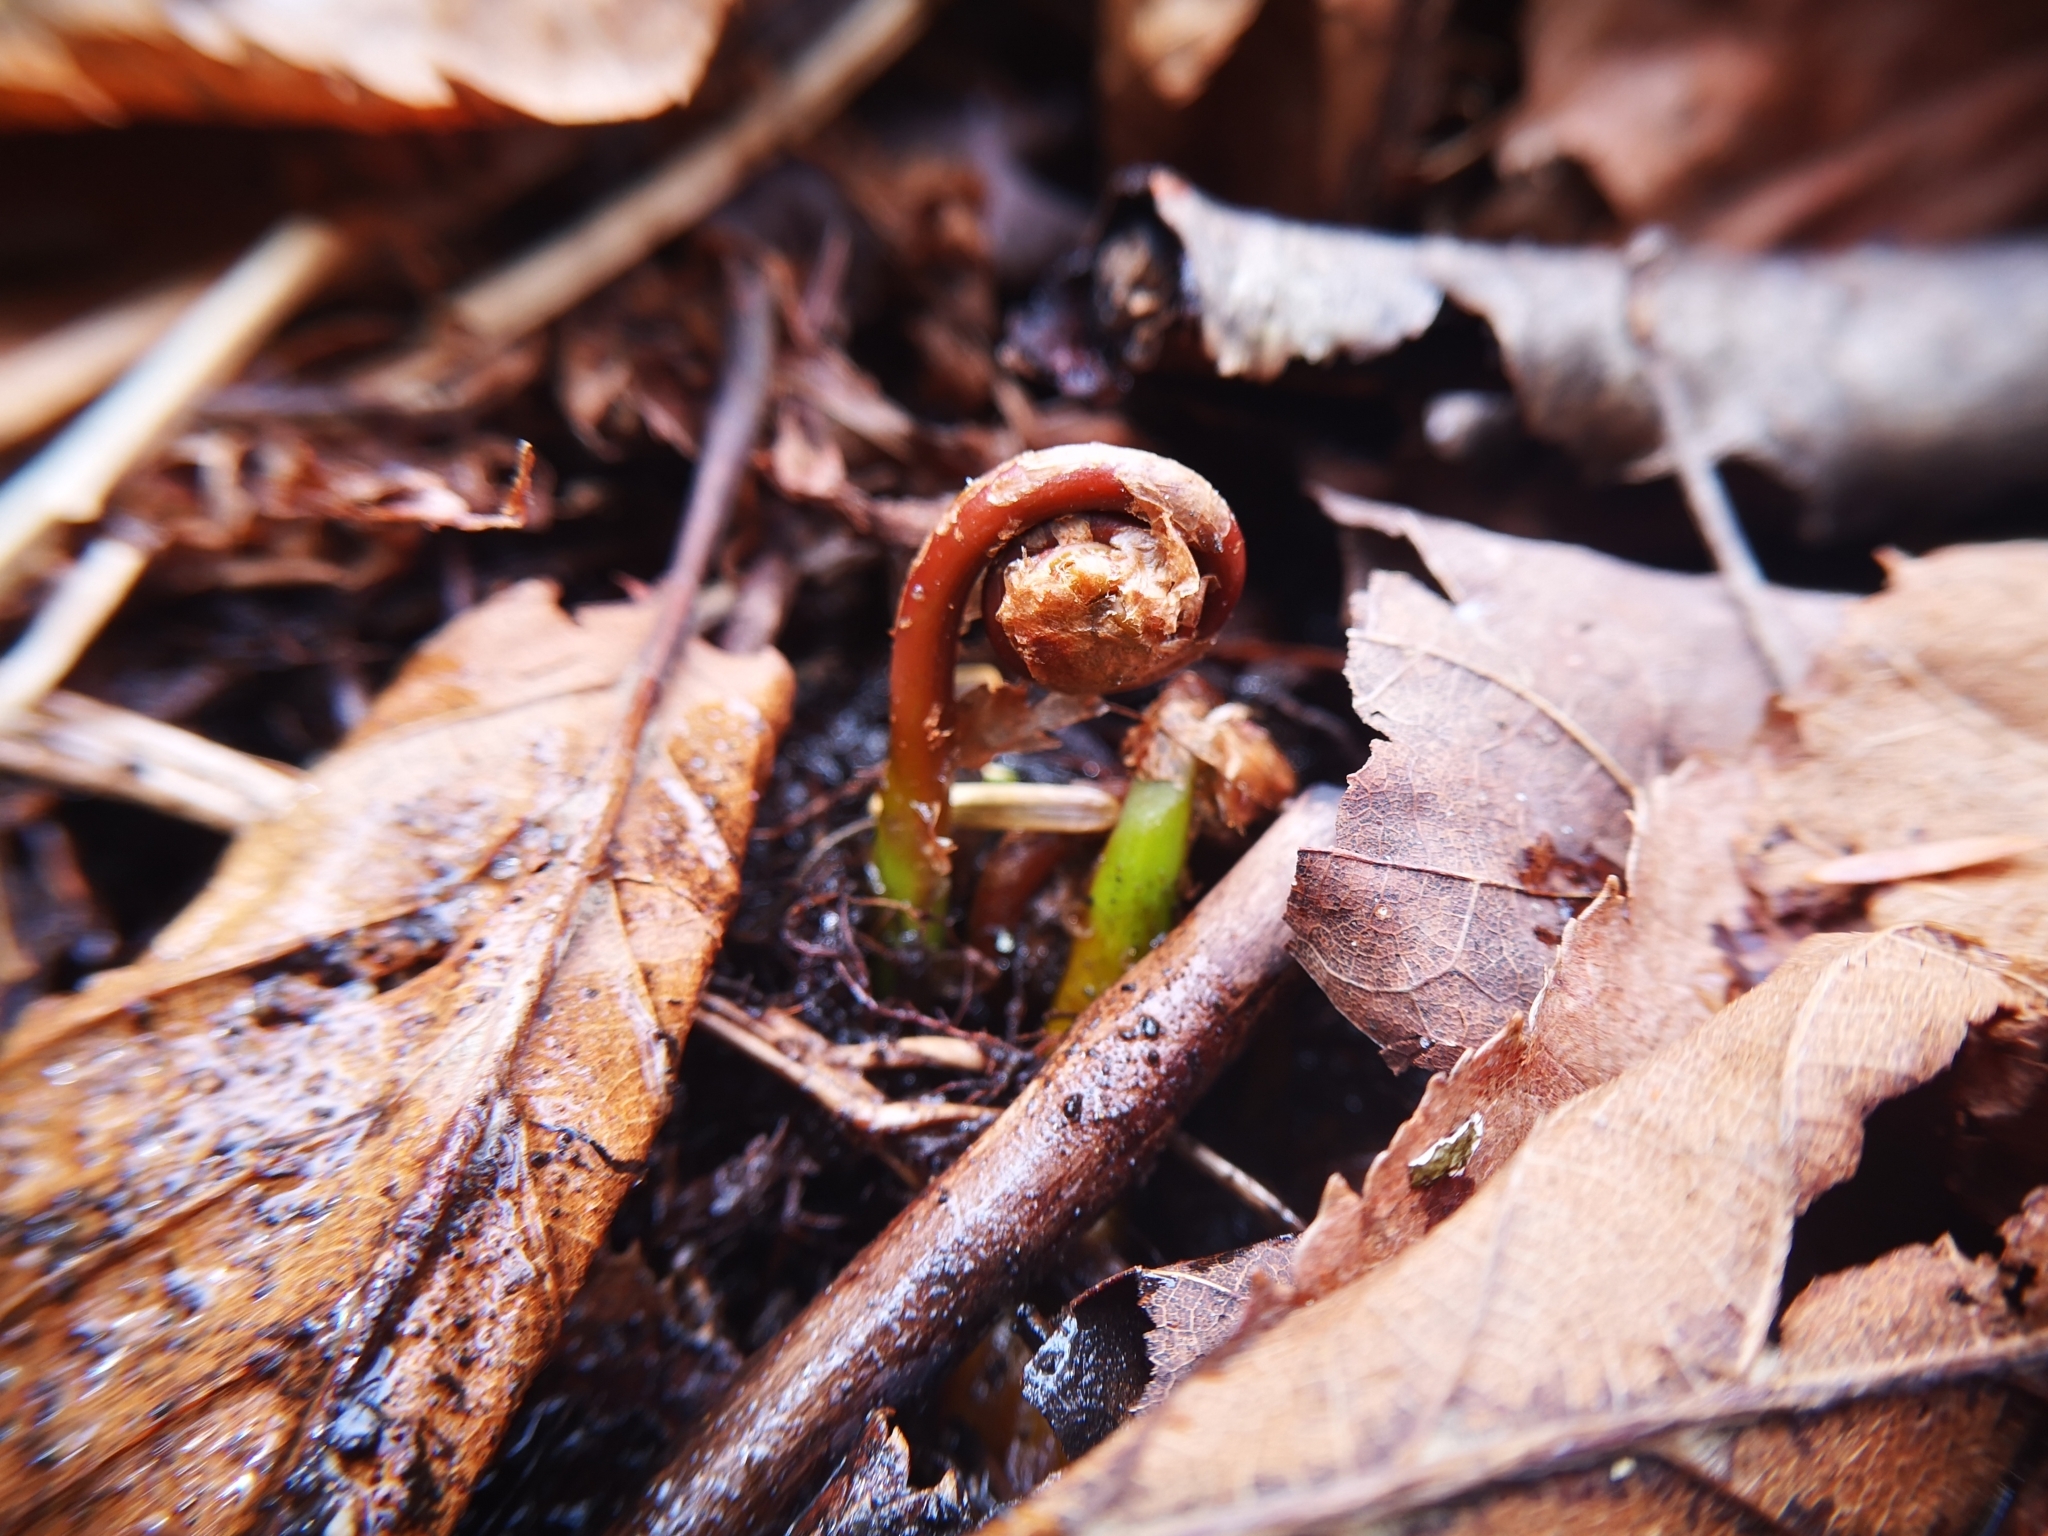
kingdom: Plantae
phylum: Tracheophyta
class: Polypodiopsida
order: Polypodiales
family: Onocleaceae
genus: Onoclea
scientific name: Onoclea sensibilis
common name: Sensitive fern
